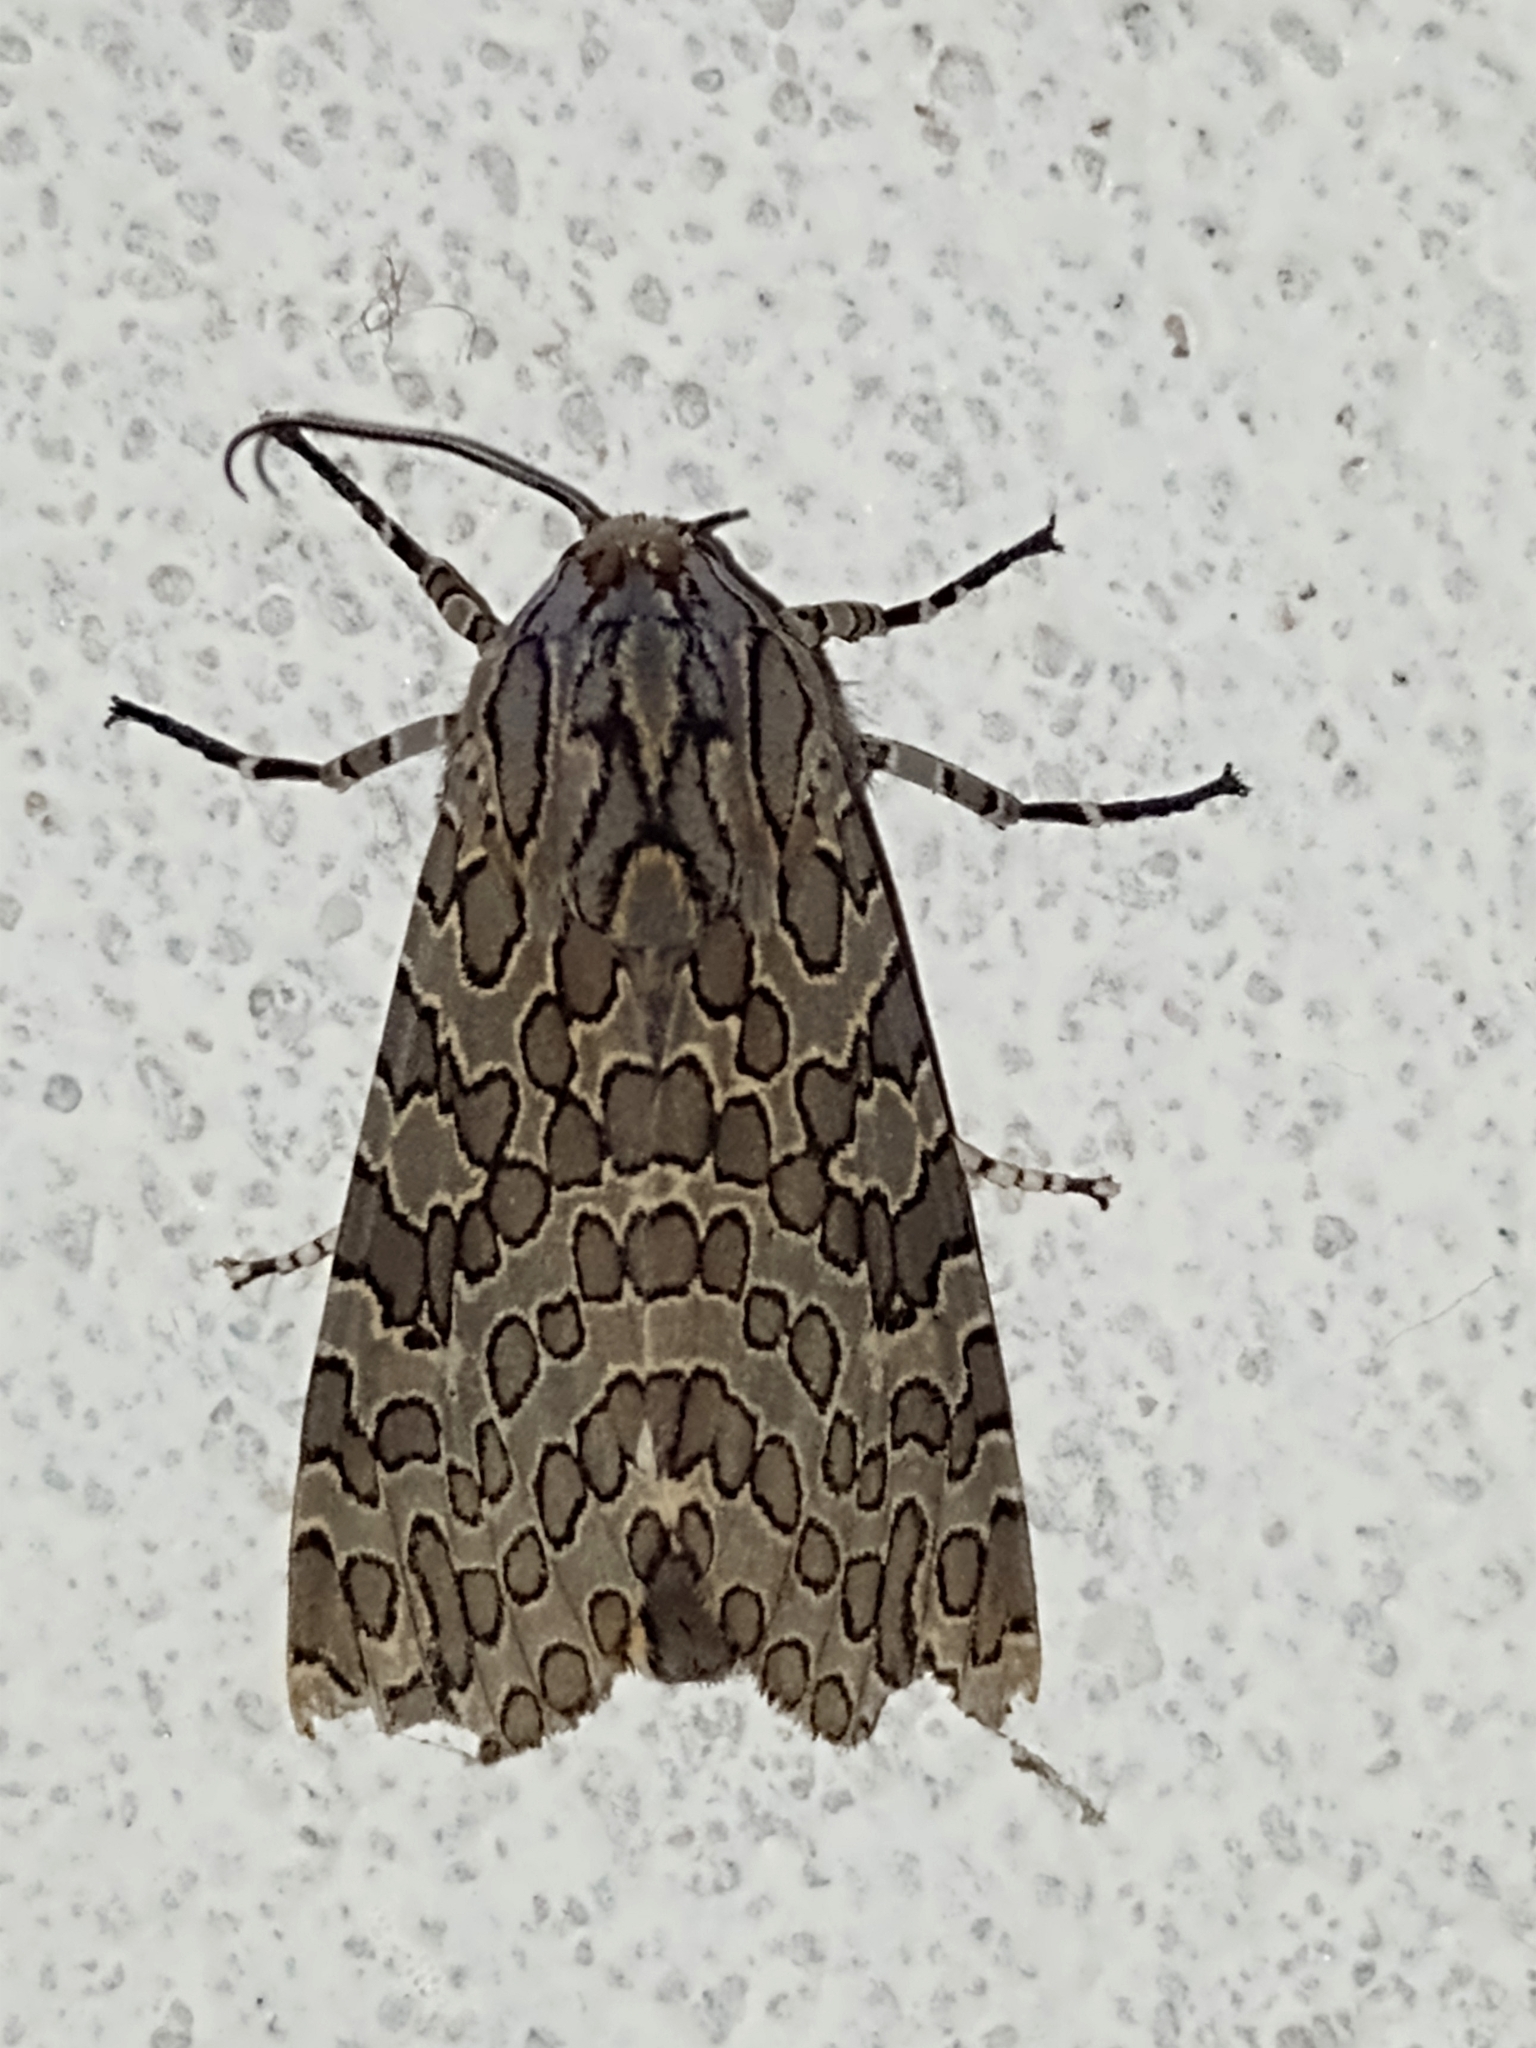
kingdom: Animalia
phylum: Arthropoda
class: Insecta
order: Lepidoptera
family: Erebidae
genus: Hypercompe
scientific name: Hypercompe indecisa
